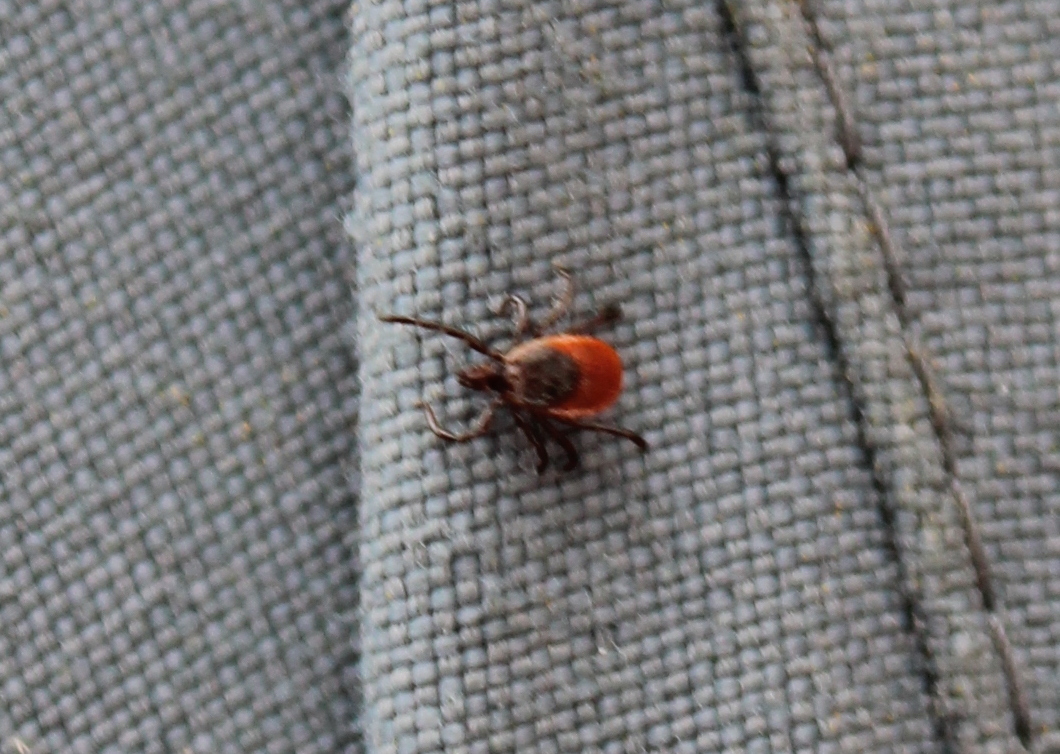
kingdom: Animalia
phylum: Arthropoda
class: Arachnida
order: Ixodida
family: Ixodidae
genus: Ixodes
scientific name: Ixodes scapularis
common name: Black legged tick
